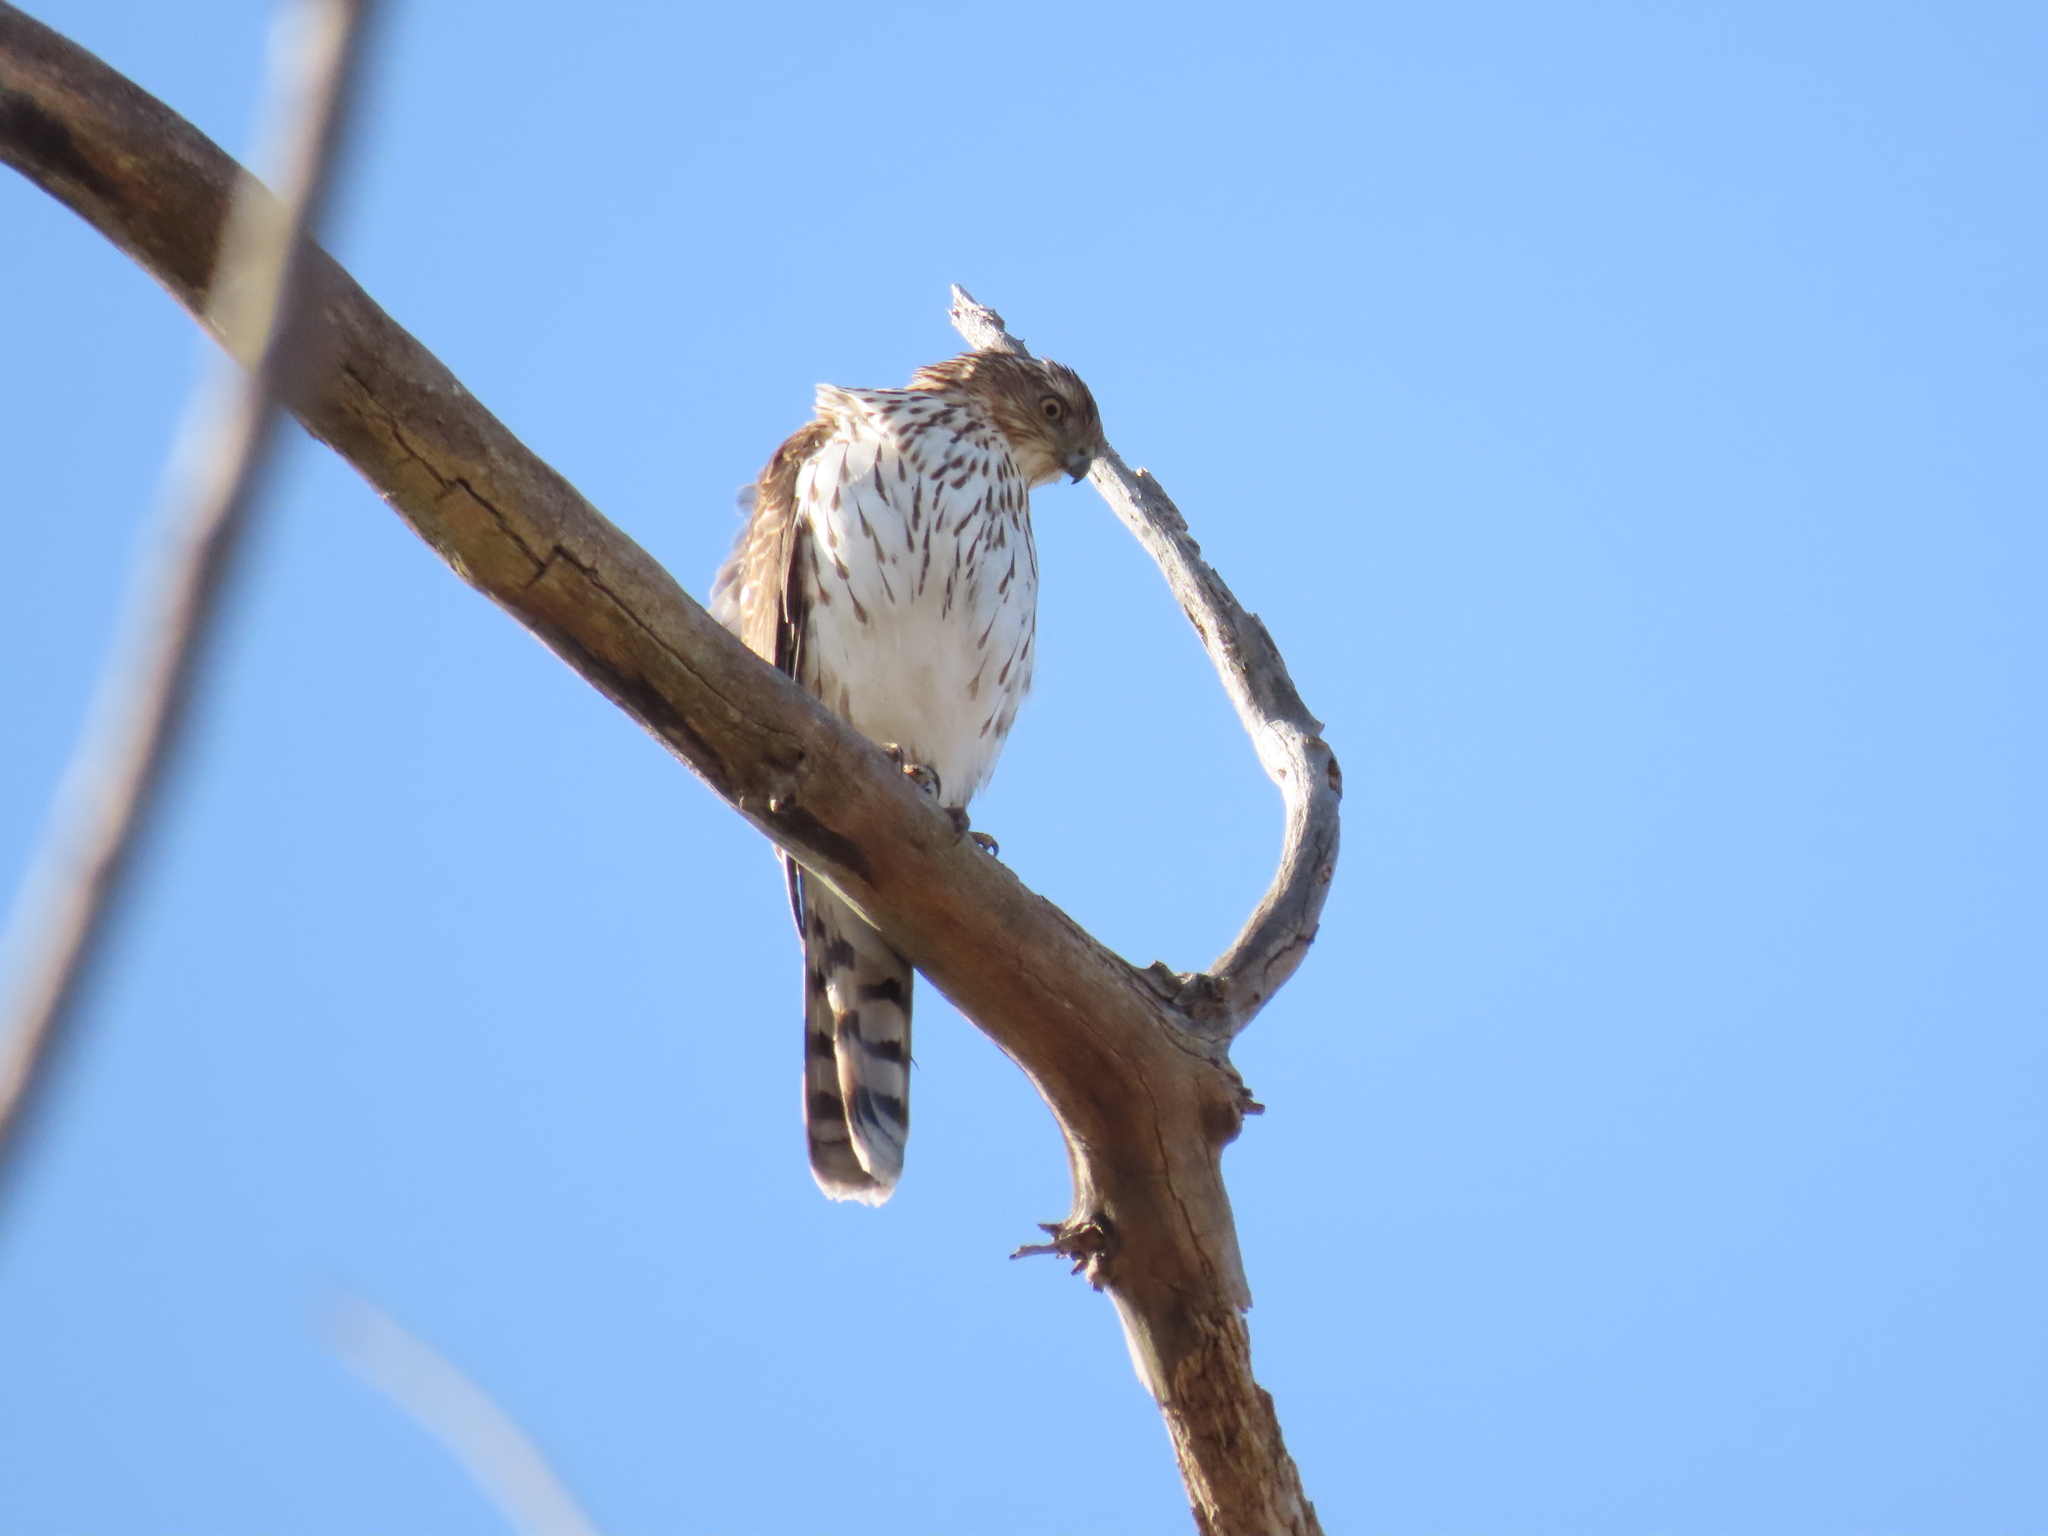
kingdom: Animalia
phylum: Chordata
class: Aves
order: Accipitriformes
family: Accipitridae
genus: Accipiter
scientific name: Accipiter cooperii
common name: Cooper's hawk
